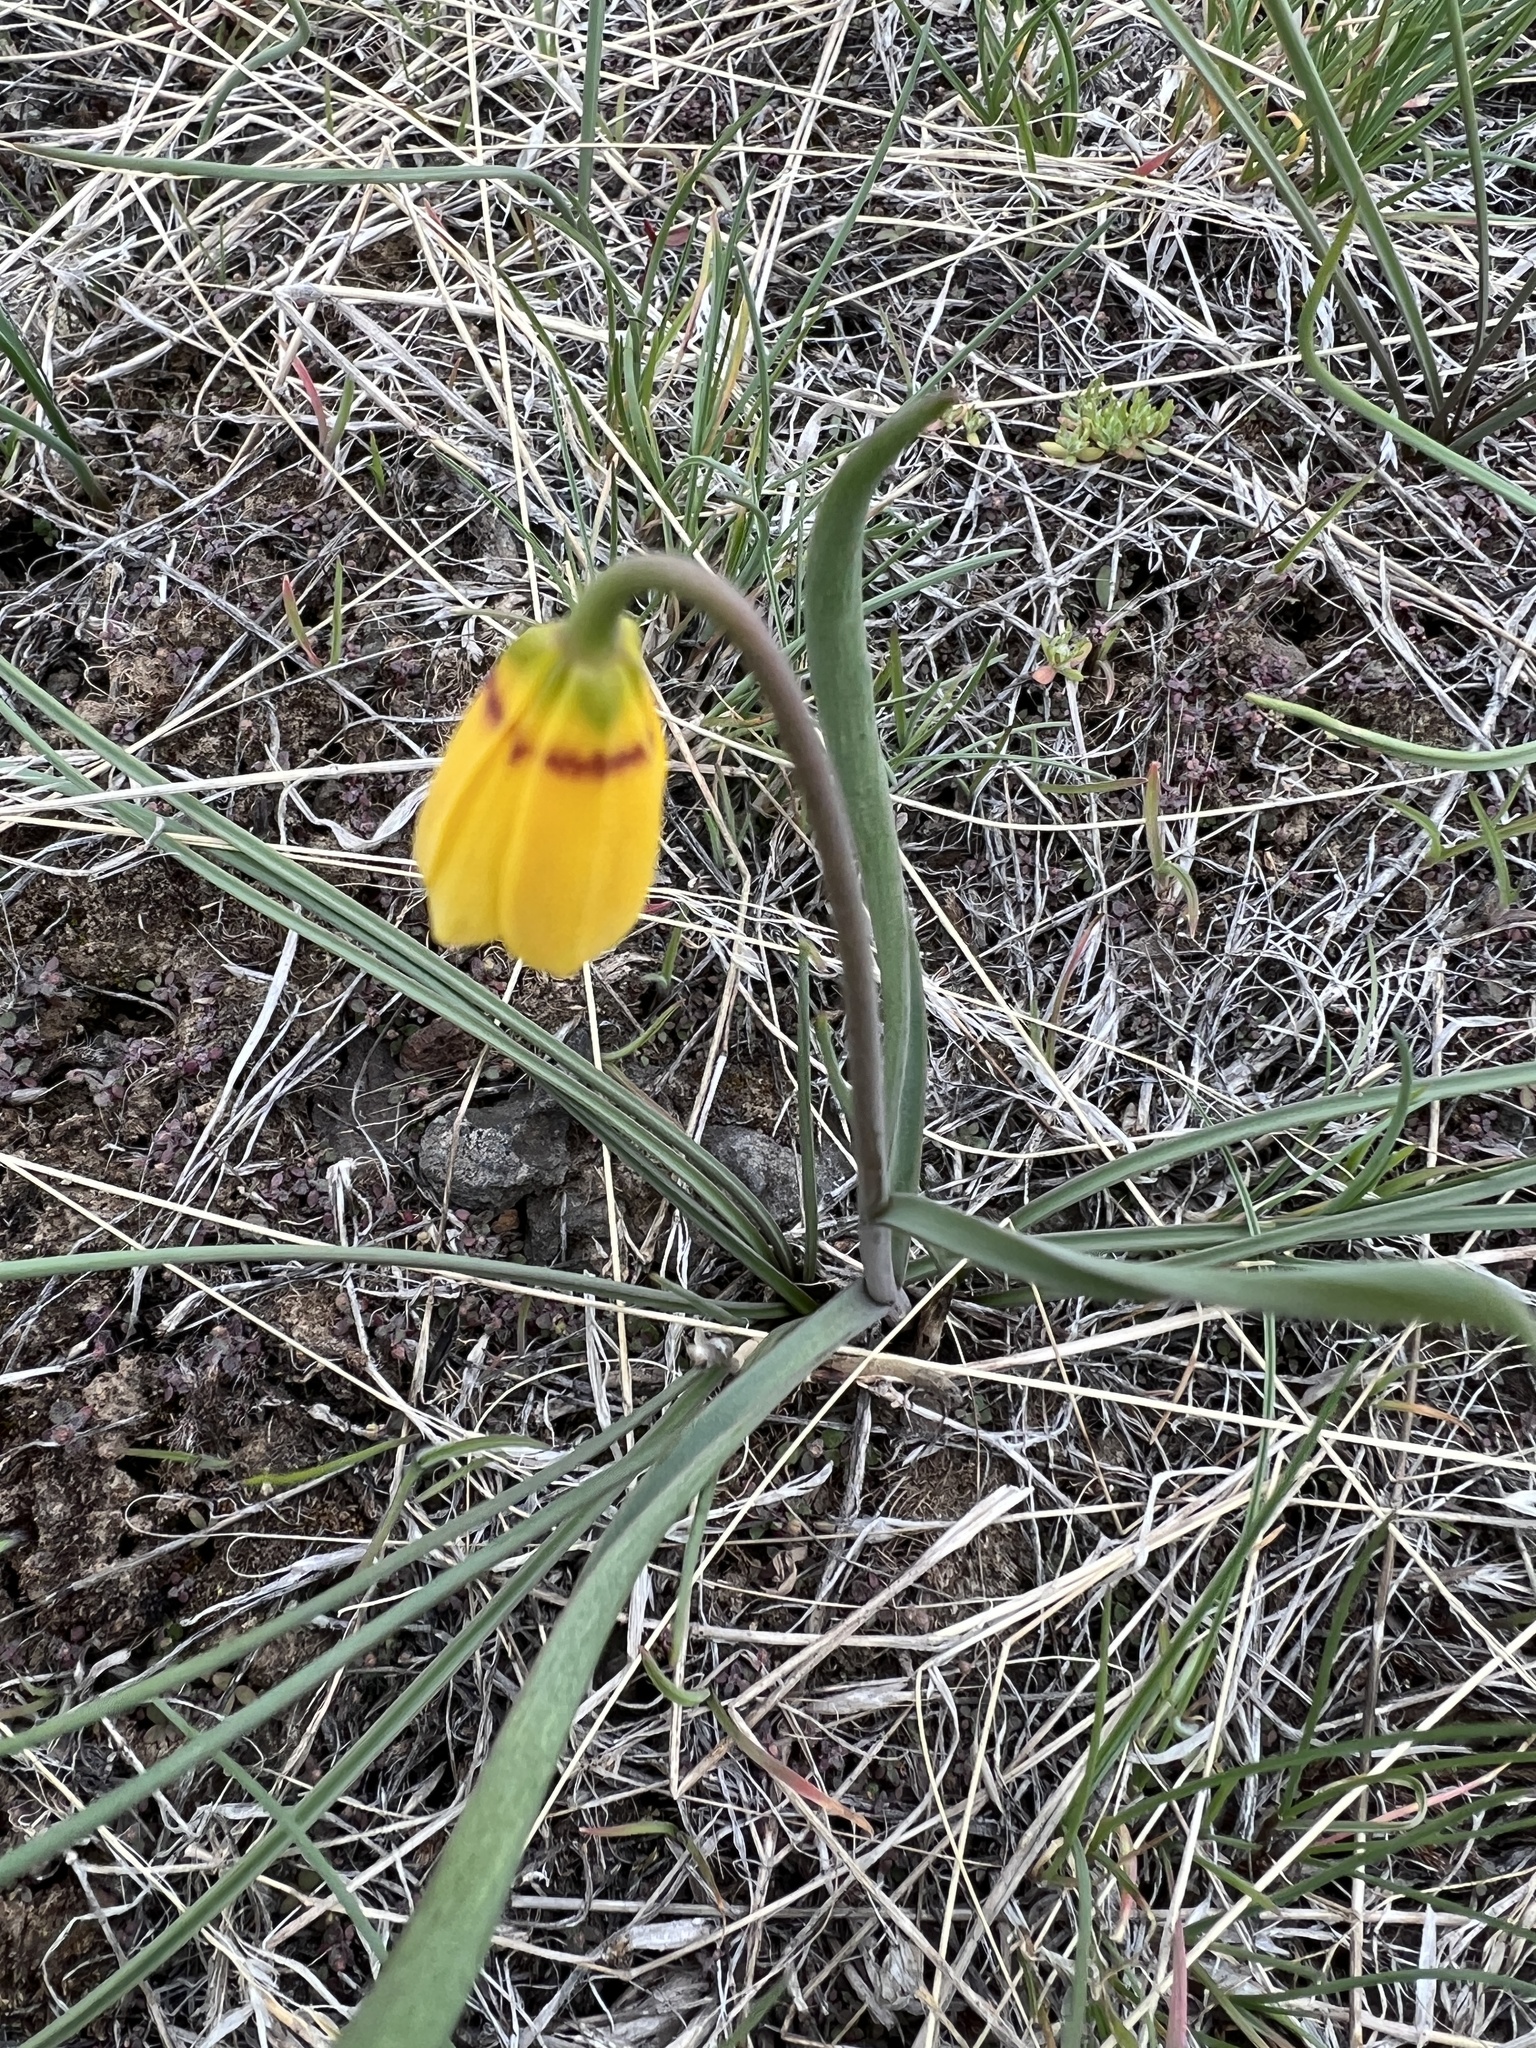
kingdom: Plantae
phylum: Tracheophyta
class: Liliopsida
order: Liliales
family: Liliaceae
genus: Fritillaria
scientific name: Fritillaria pudica
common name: Yellow fritillary
